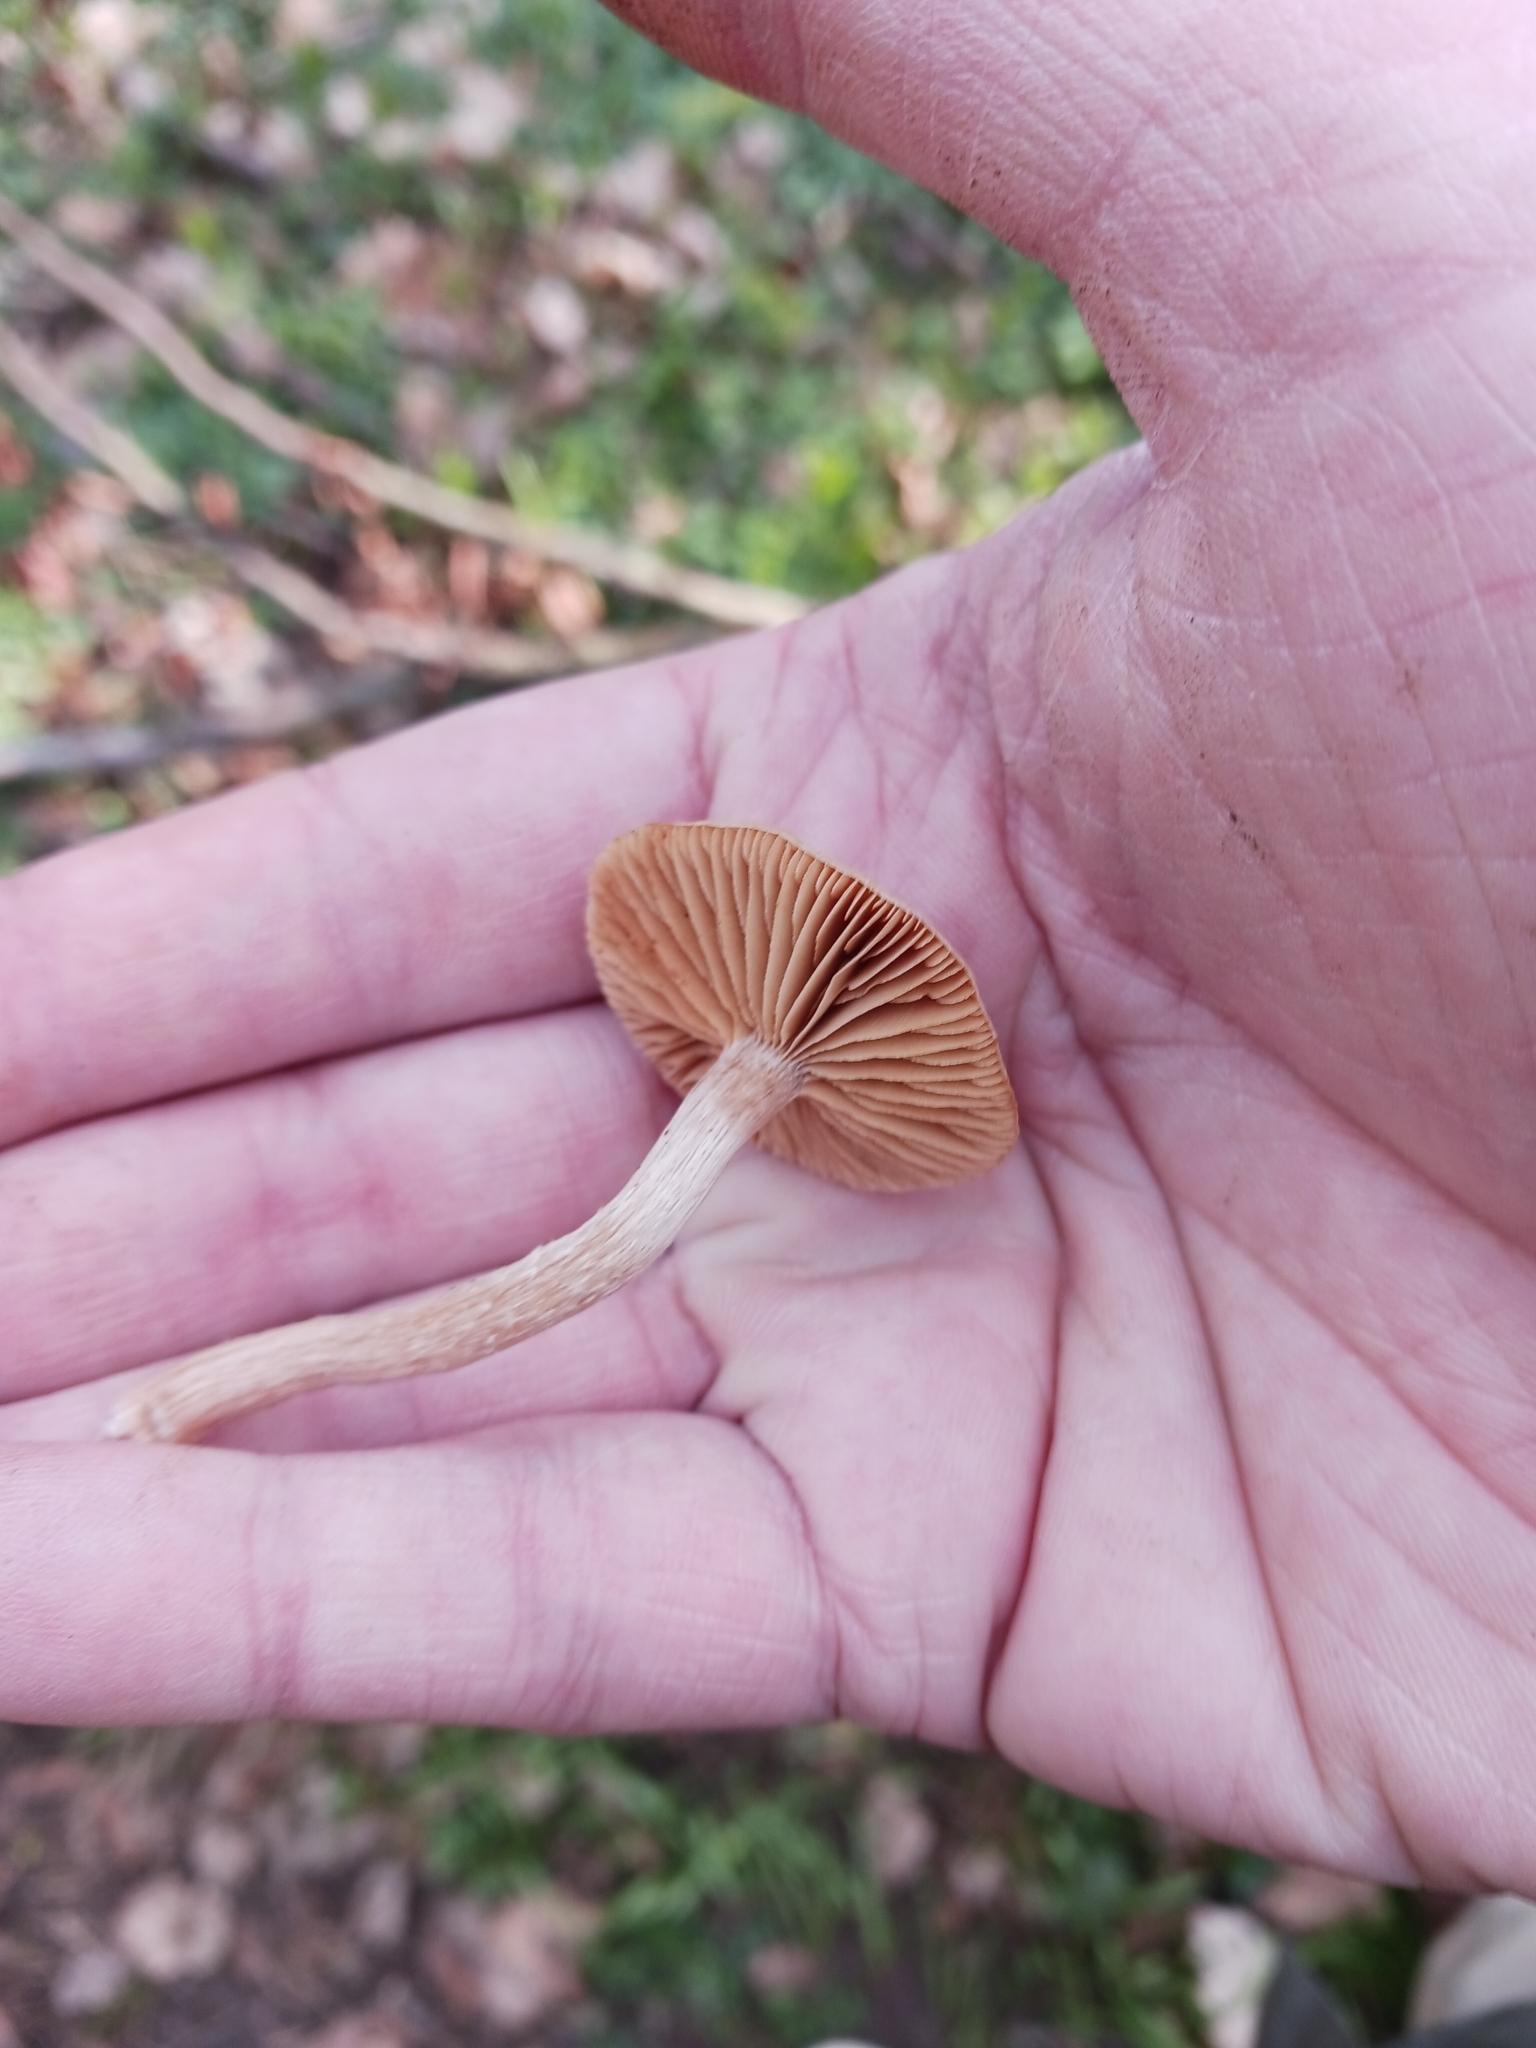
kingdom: Fungi
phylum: Basidiomycota
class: Agaricomycetes
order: Agaricales
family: Tubariaceae
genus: Tubaria
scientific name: Tubaria
